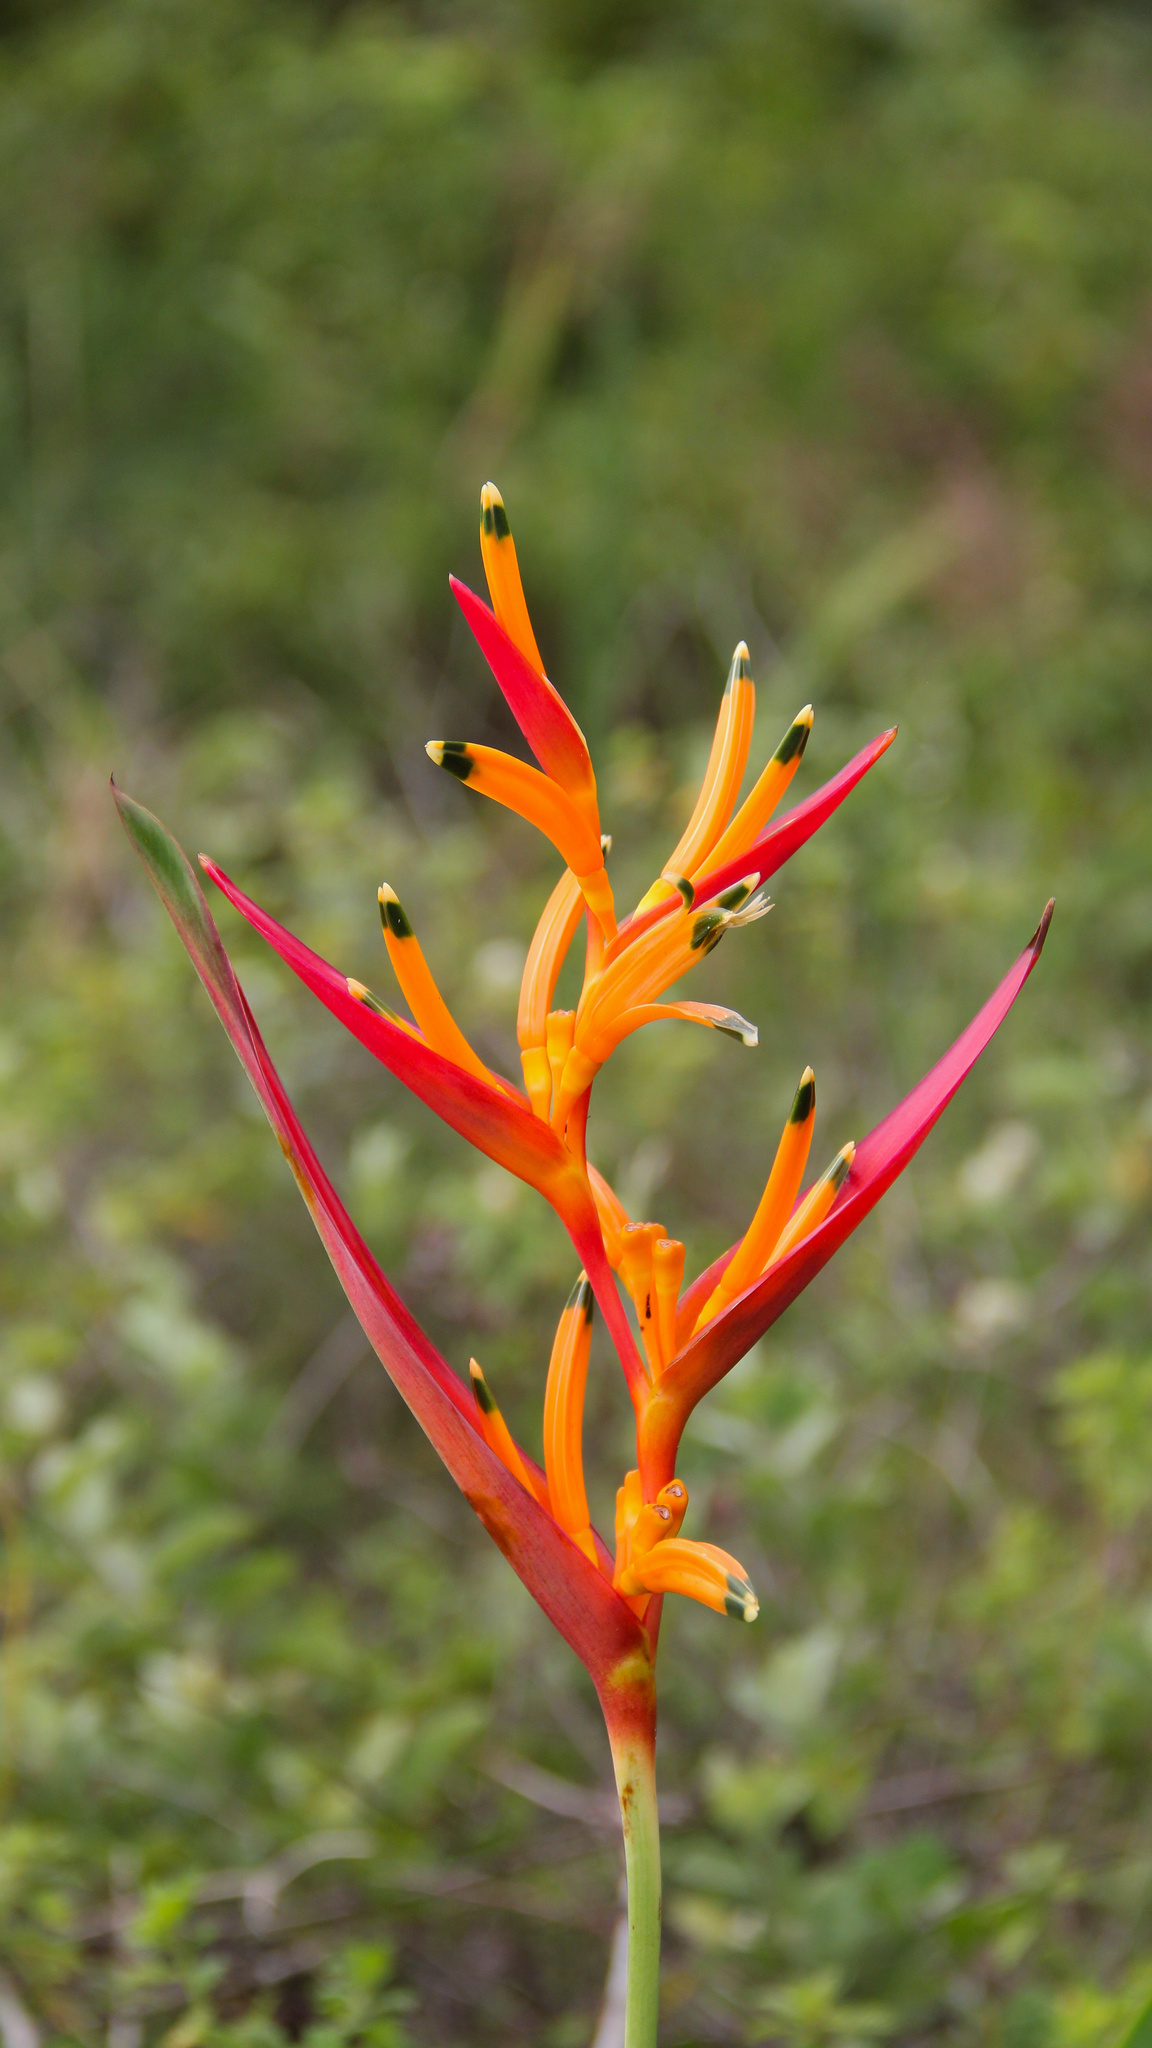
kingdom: Plantae
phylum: Tracheophyta
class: Liliopsida
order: Zingiberales
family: Heliconiaceae
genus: Heliconia
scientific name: Heliconia psittacorum
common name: Parrot's-flower
